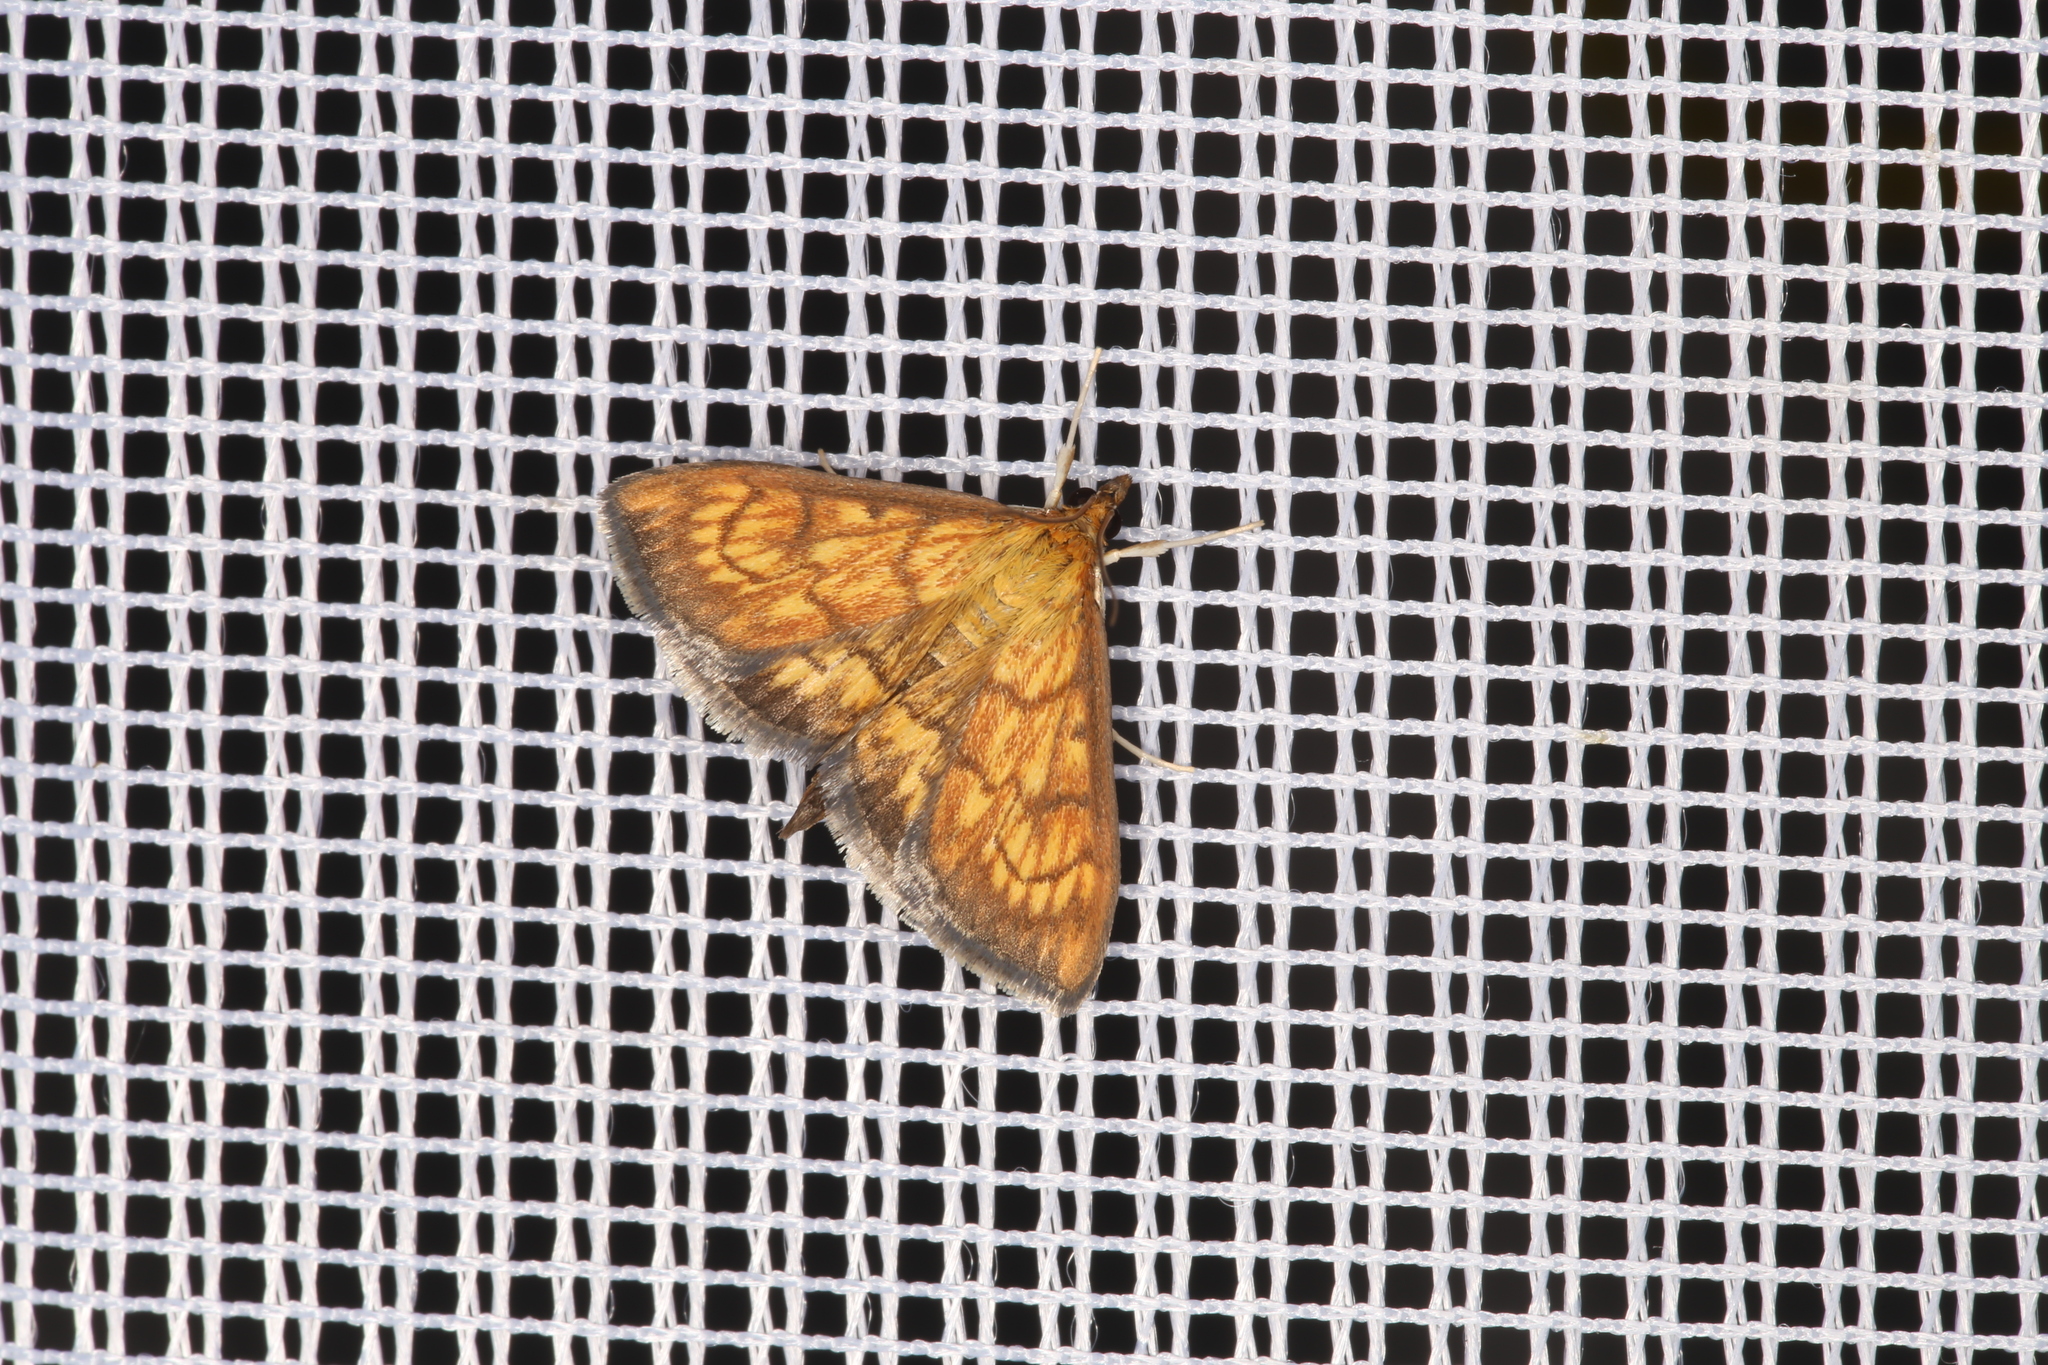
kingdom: Animalia
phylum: Arthropoda
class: Insecta
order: Lepidoptera
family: Crambidae
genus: Ecpyrrhorrhoe
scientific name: Ecpyrrhorrhoe rubiginalis
